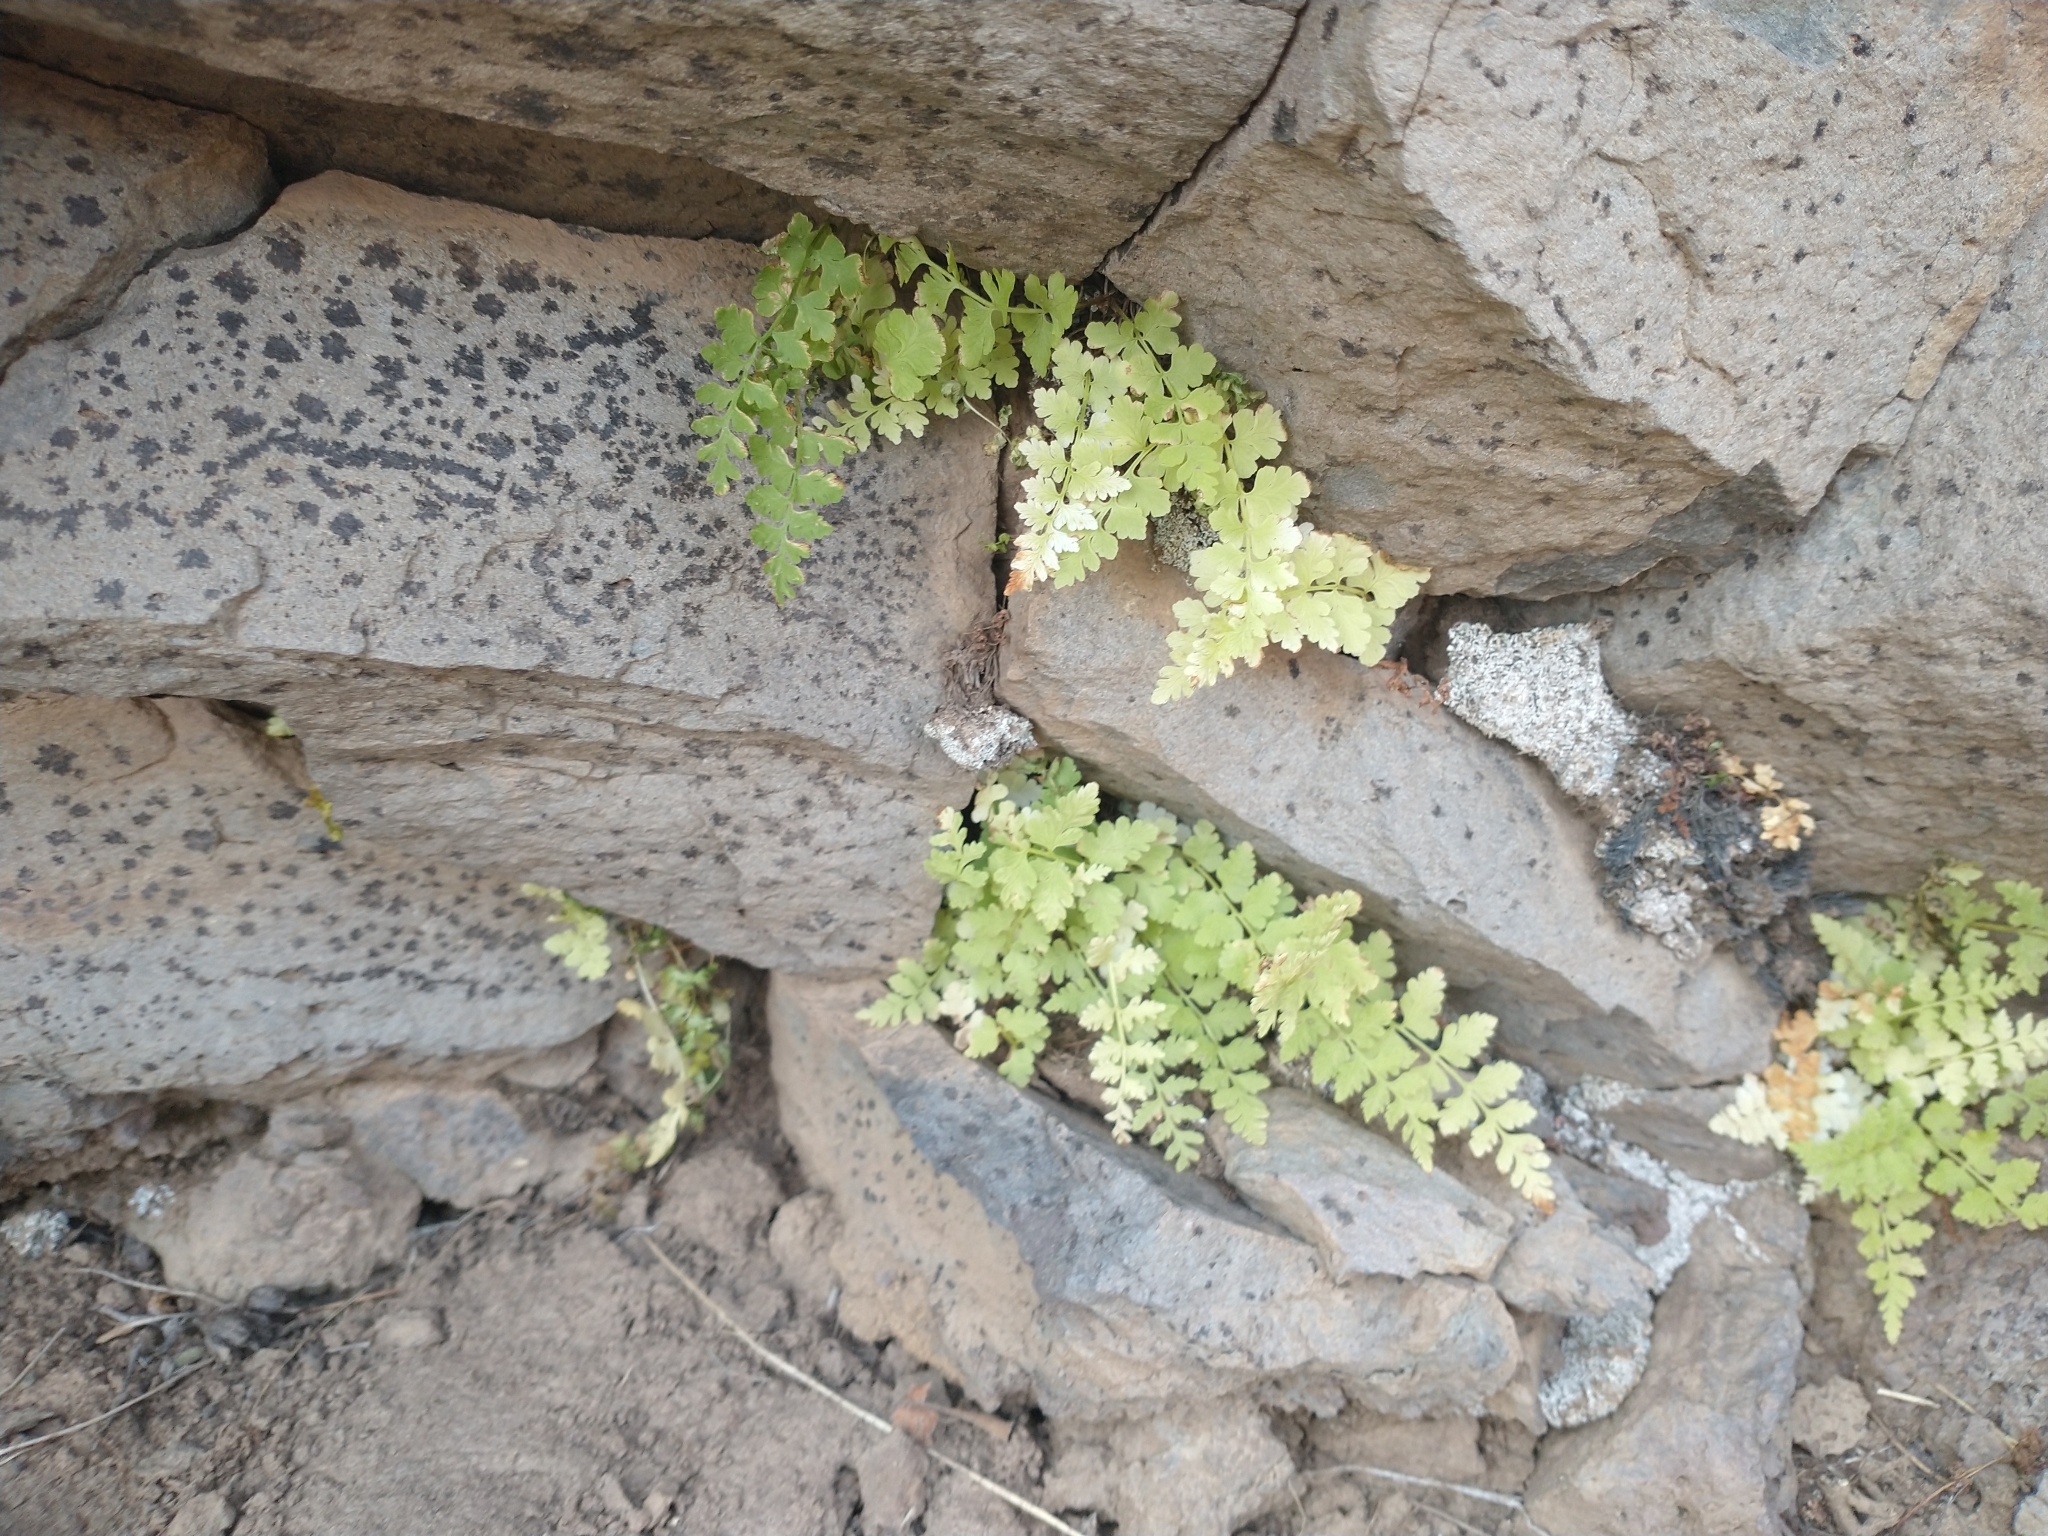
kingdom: Plantae
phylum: Tracheophyta
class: Polypodiopsida
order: Polypodiales
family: Cystopteridaceae
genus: Cystopteris
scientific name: Cystopteris fragilis
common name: Brittle bladder fern
